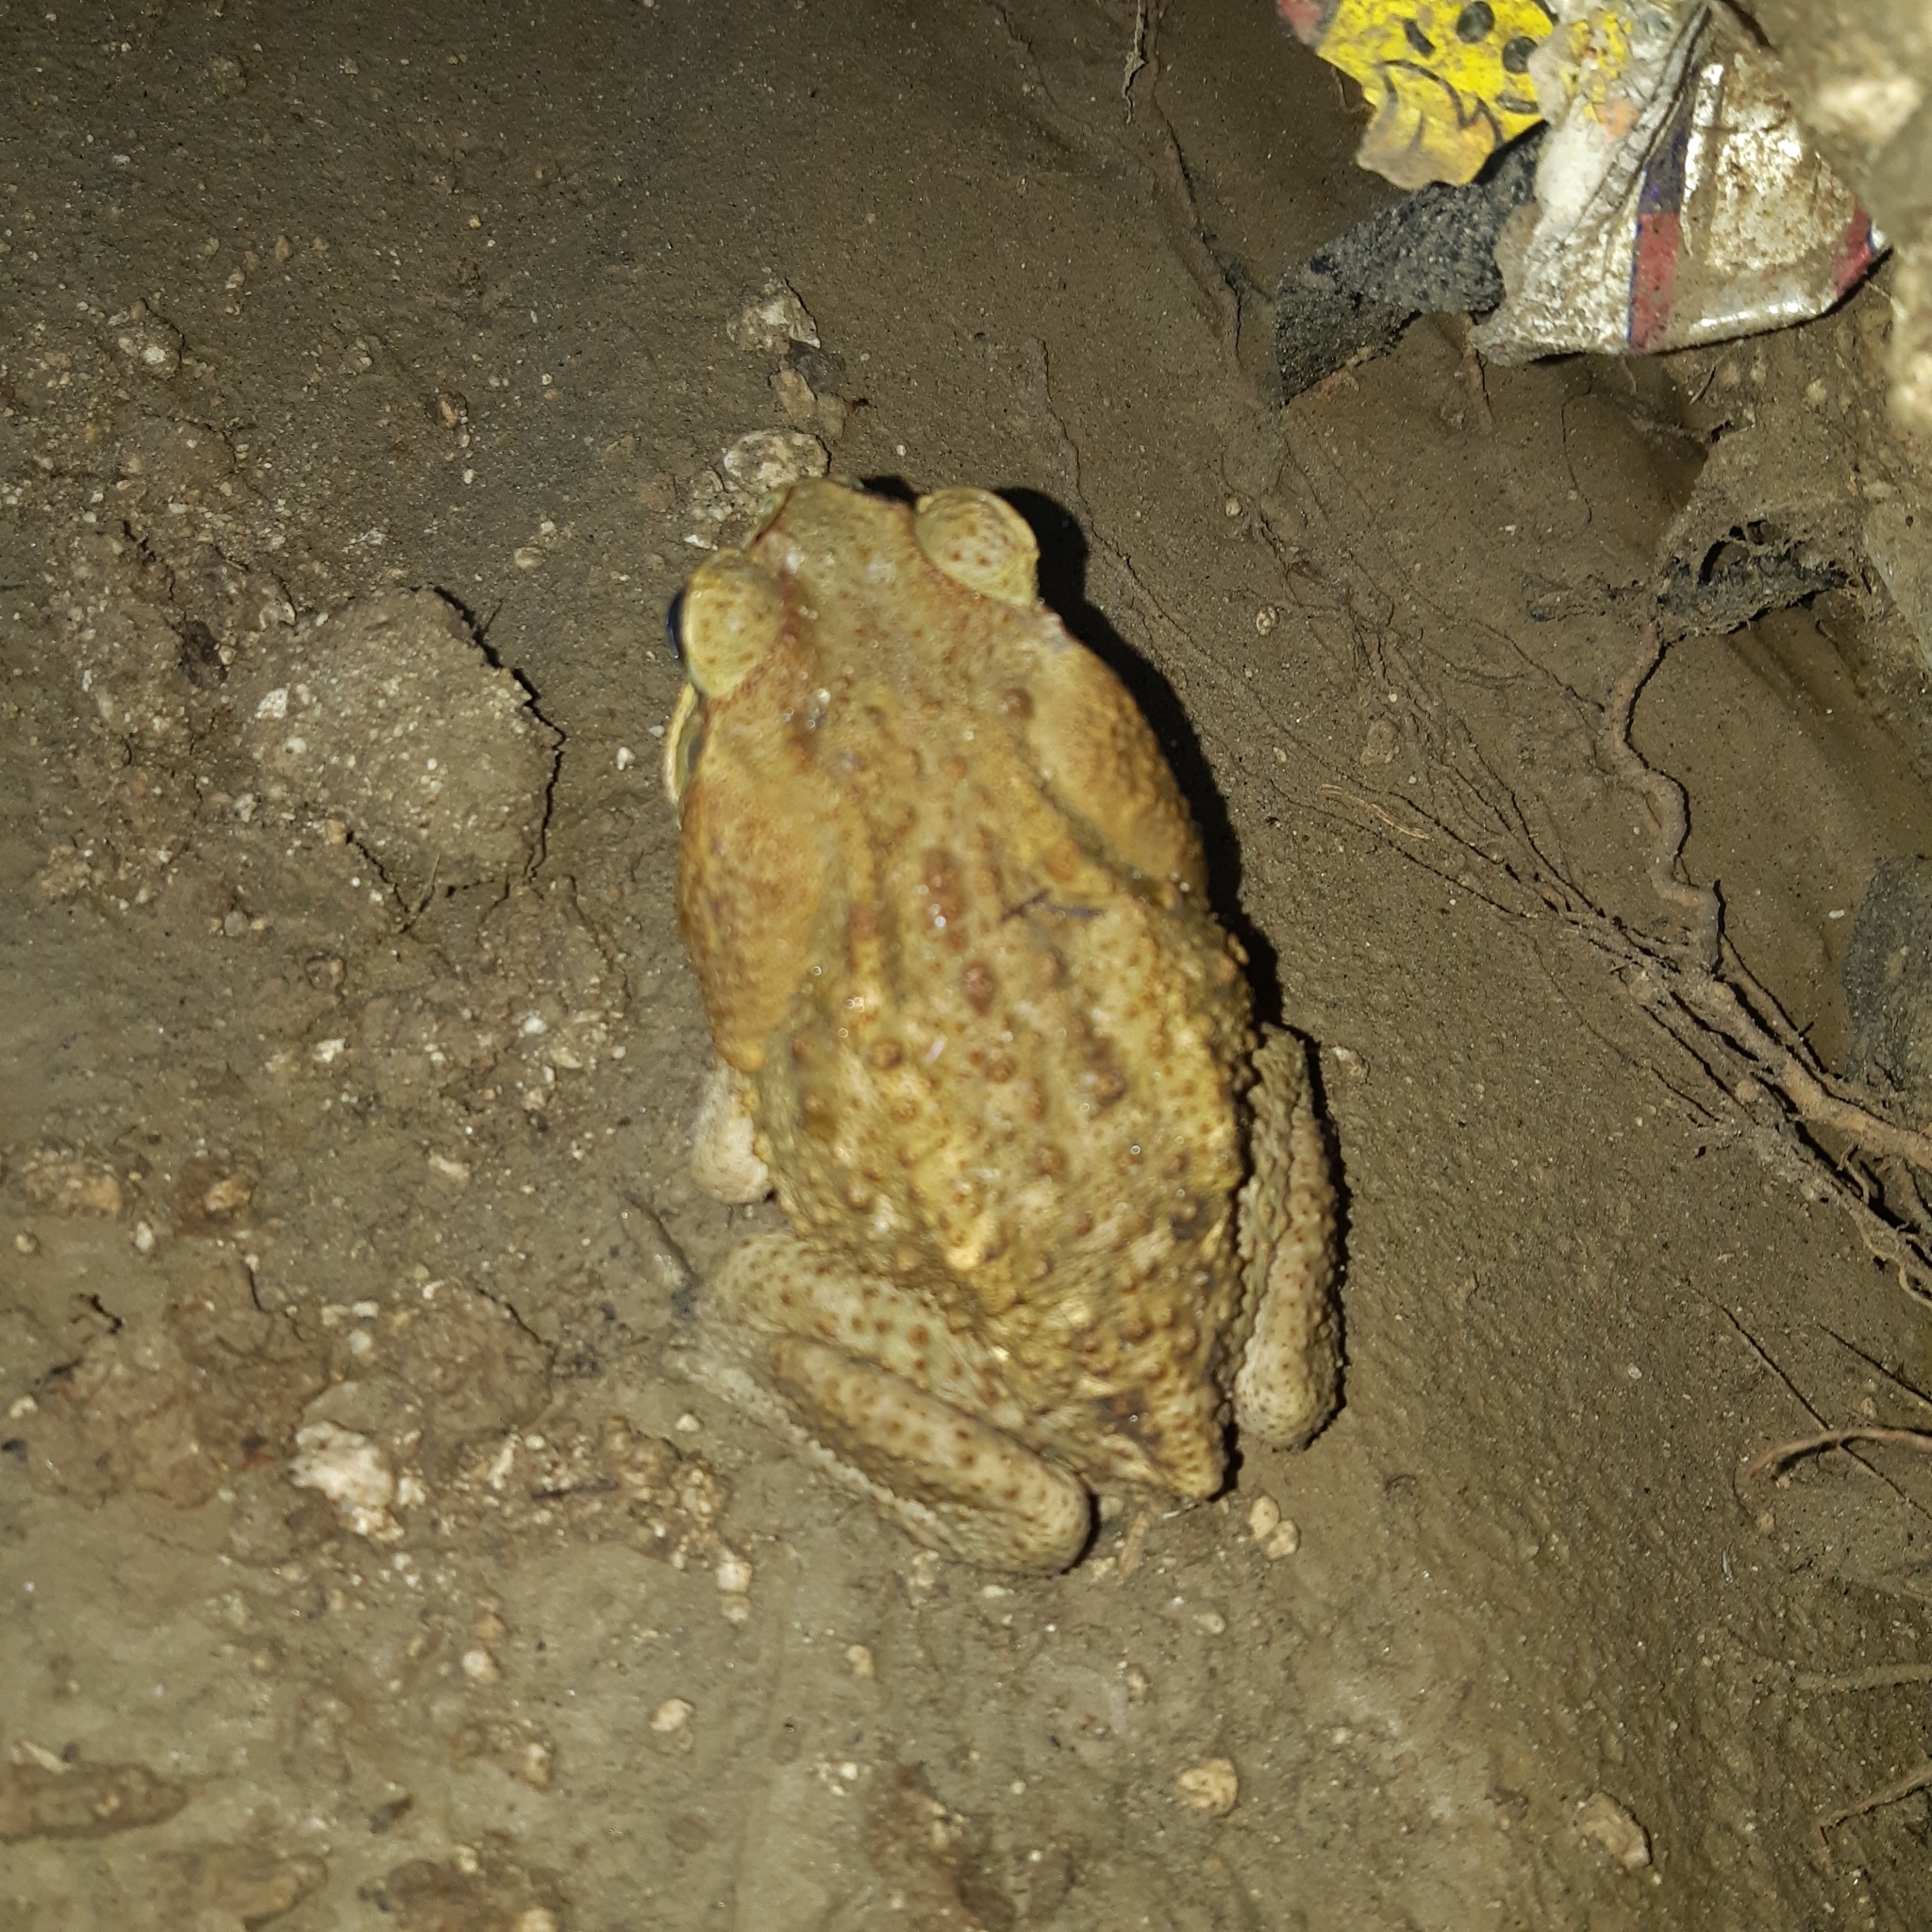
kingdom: Animalia
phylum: Chordata
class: Amphibia
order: Anura
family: Bufonidae
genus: Rhinella
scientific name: Rhinella horribilis
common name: Mesoamerican cane toad
